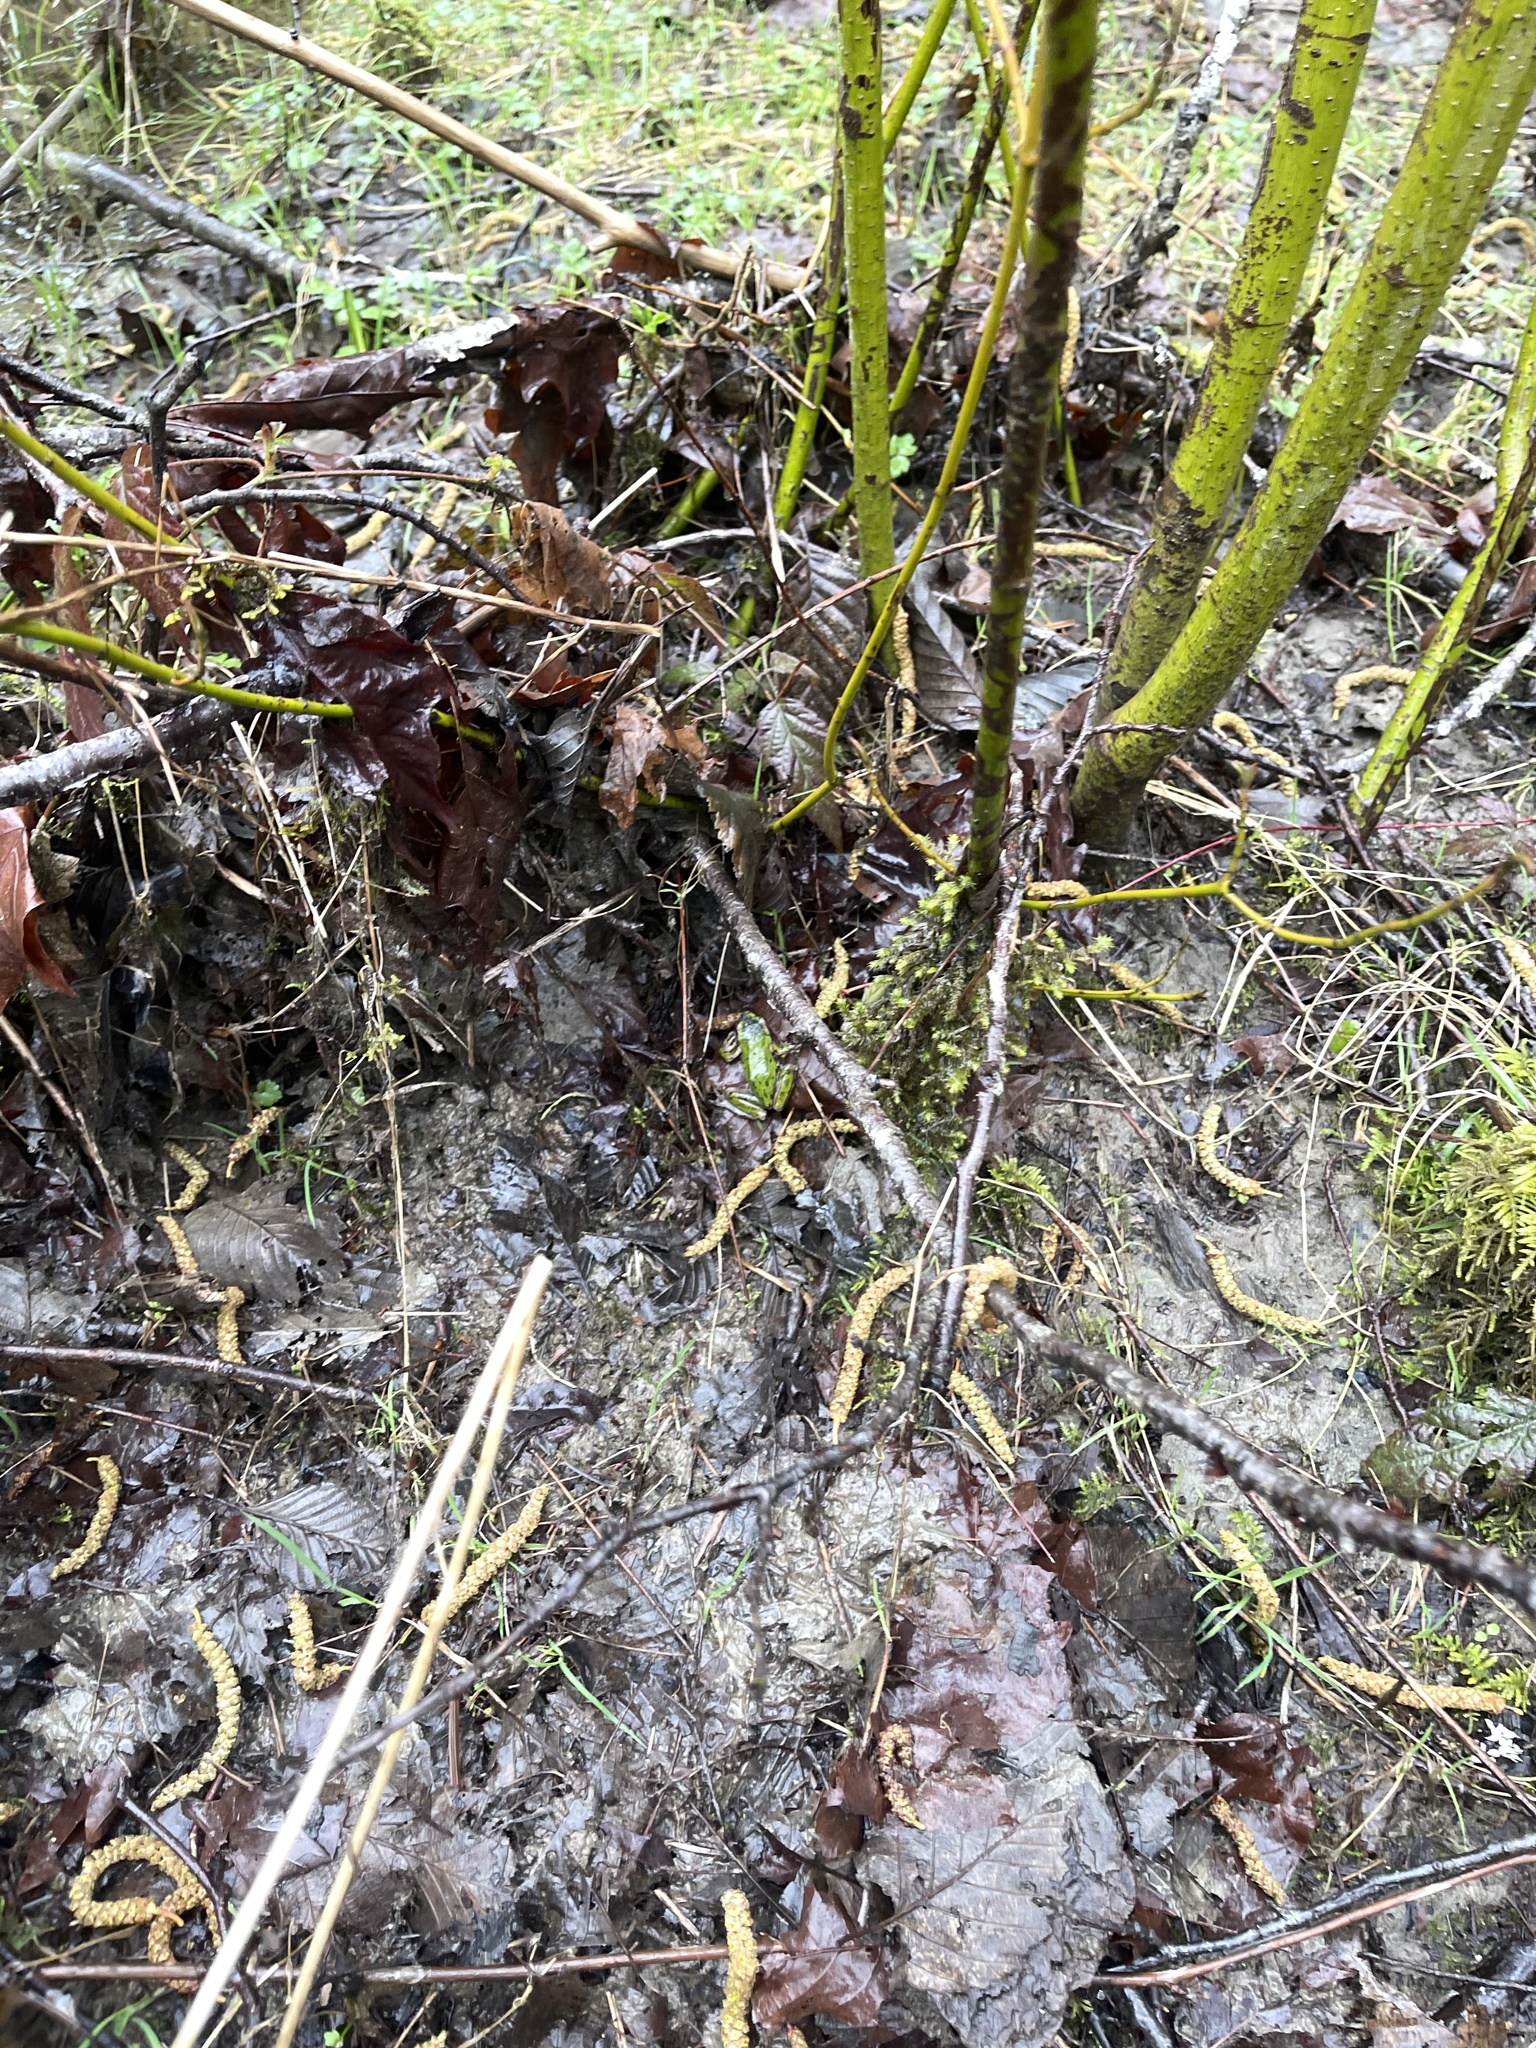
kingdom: Animalia
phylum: Chordata
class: Amphibia
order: Anura
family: Hylidae
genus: Pseudacris
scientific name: Pseudacris regilla
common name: Pacific chorus frog
